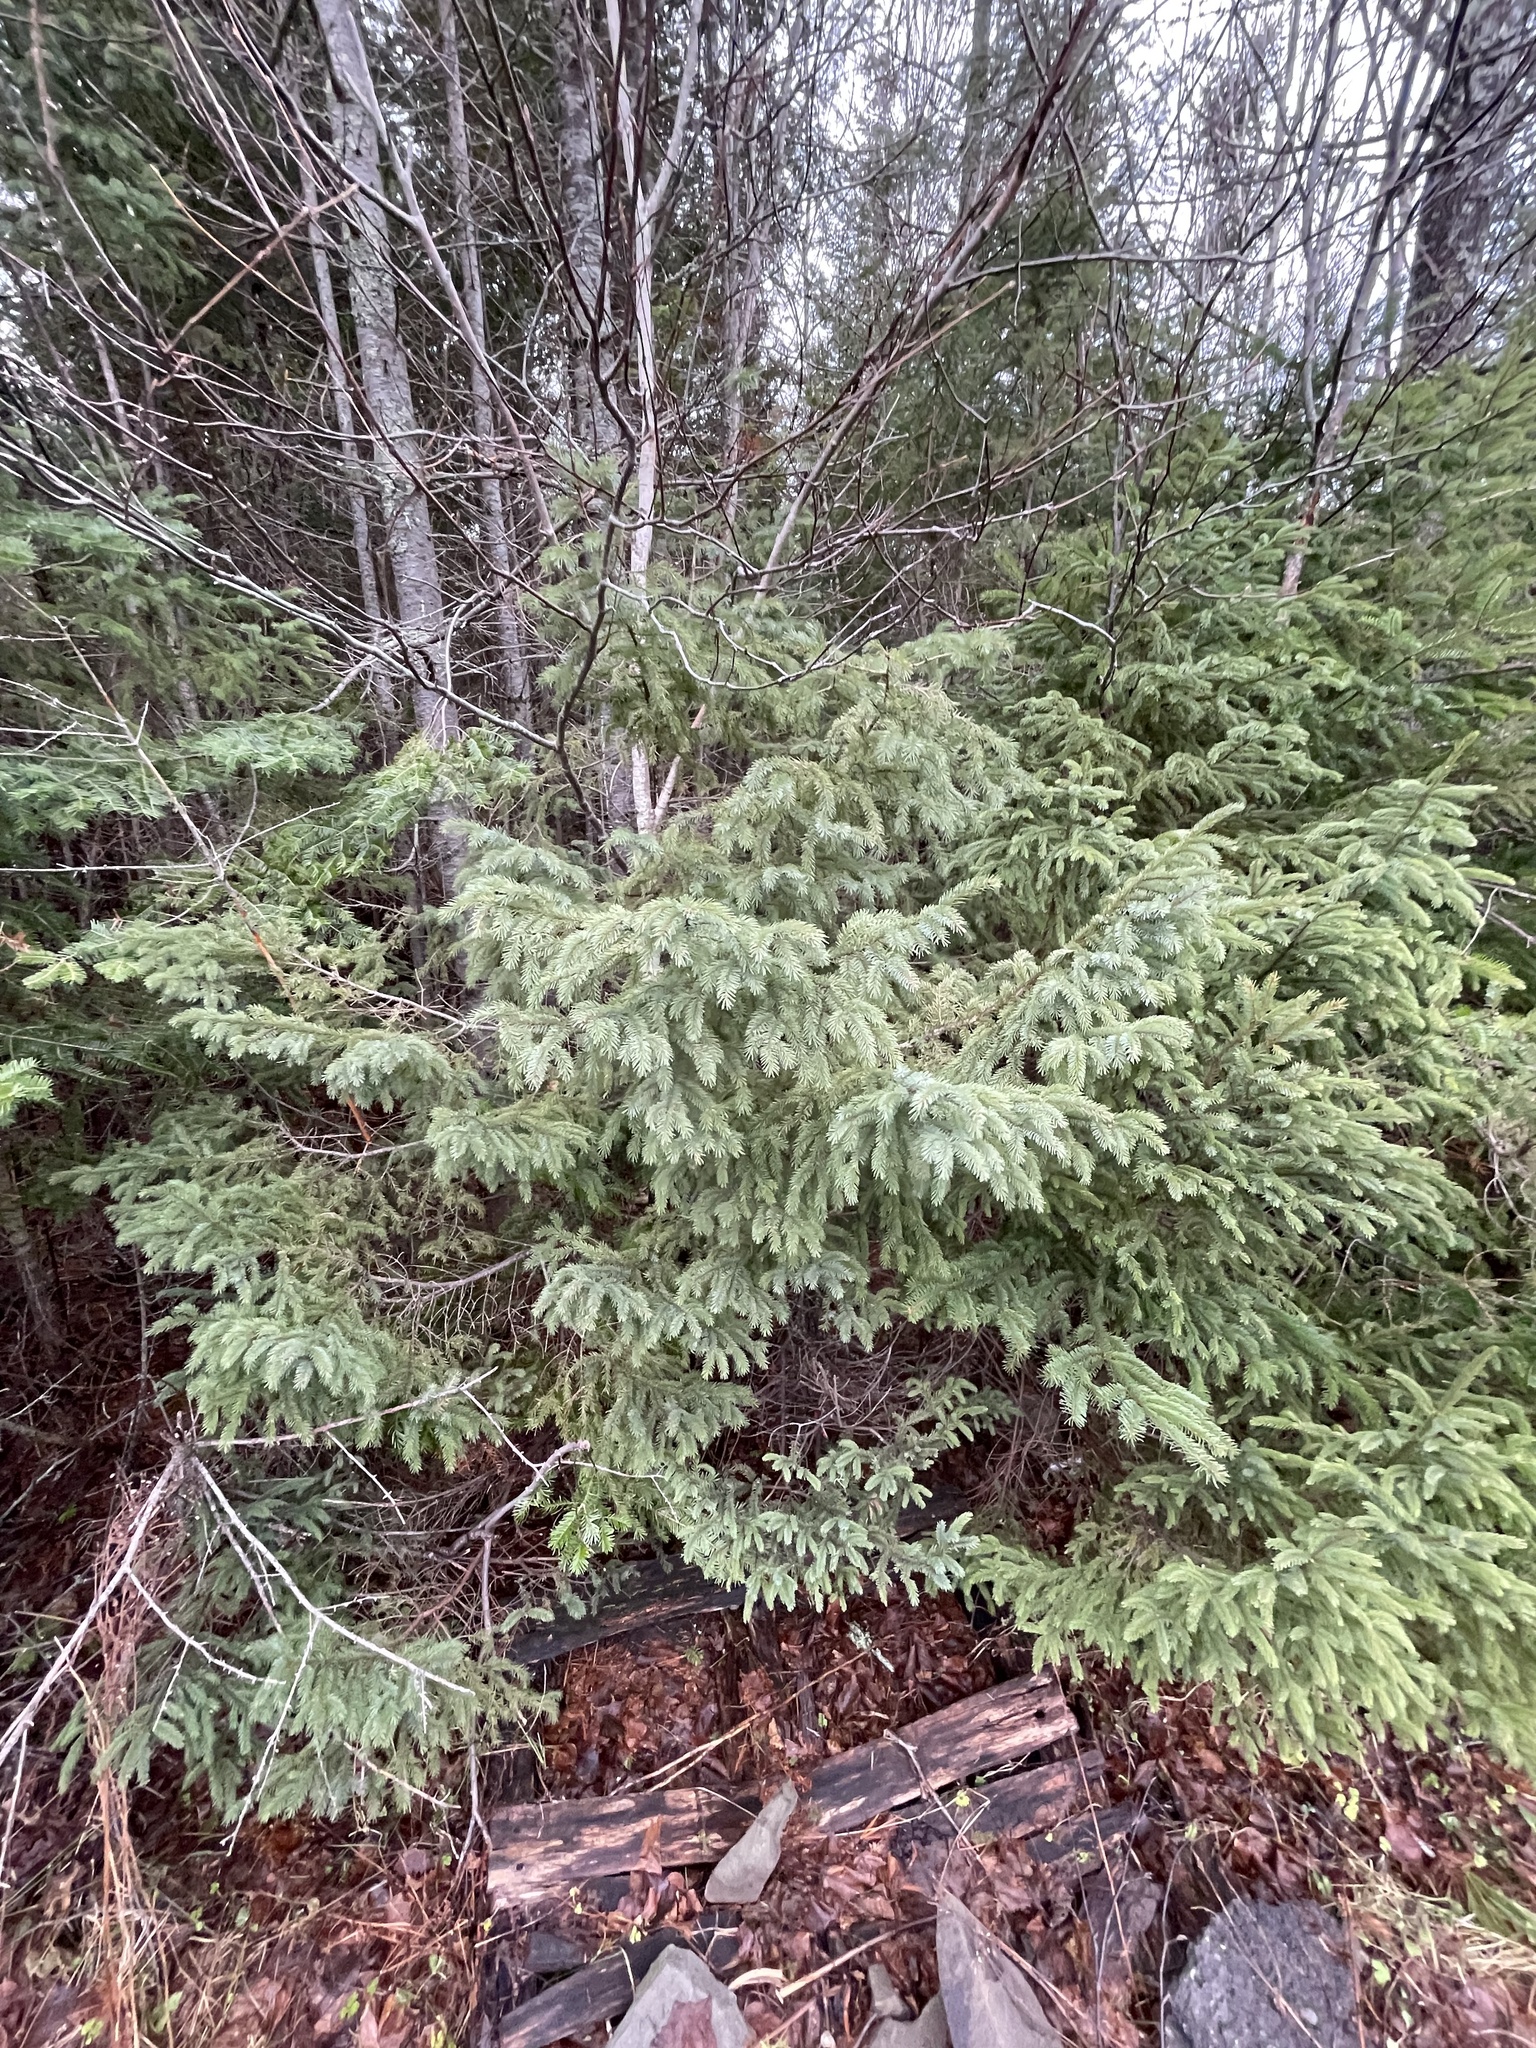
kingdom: Plantae
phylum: Tracheophyta
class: Pinopsida
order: Pinales
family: Pinaceae
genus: Picea
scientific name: Picea glauca
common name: White spruce
